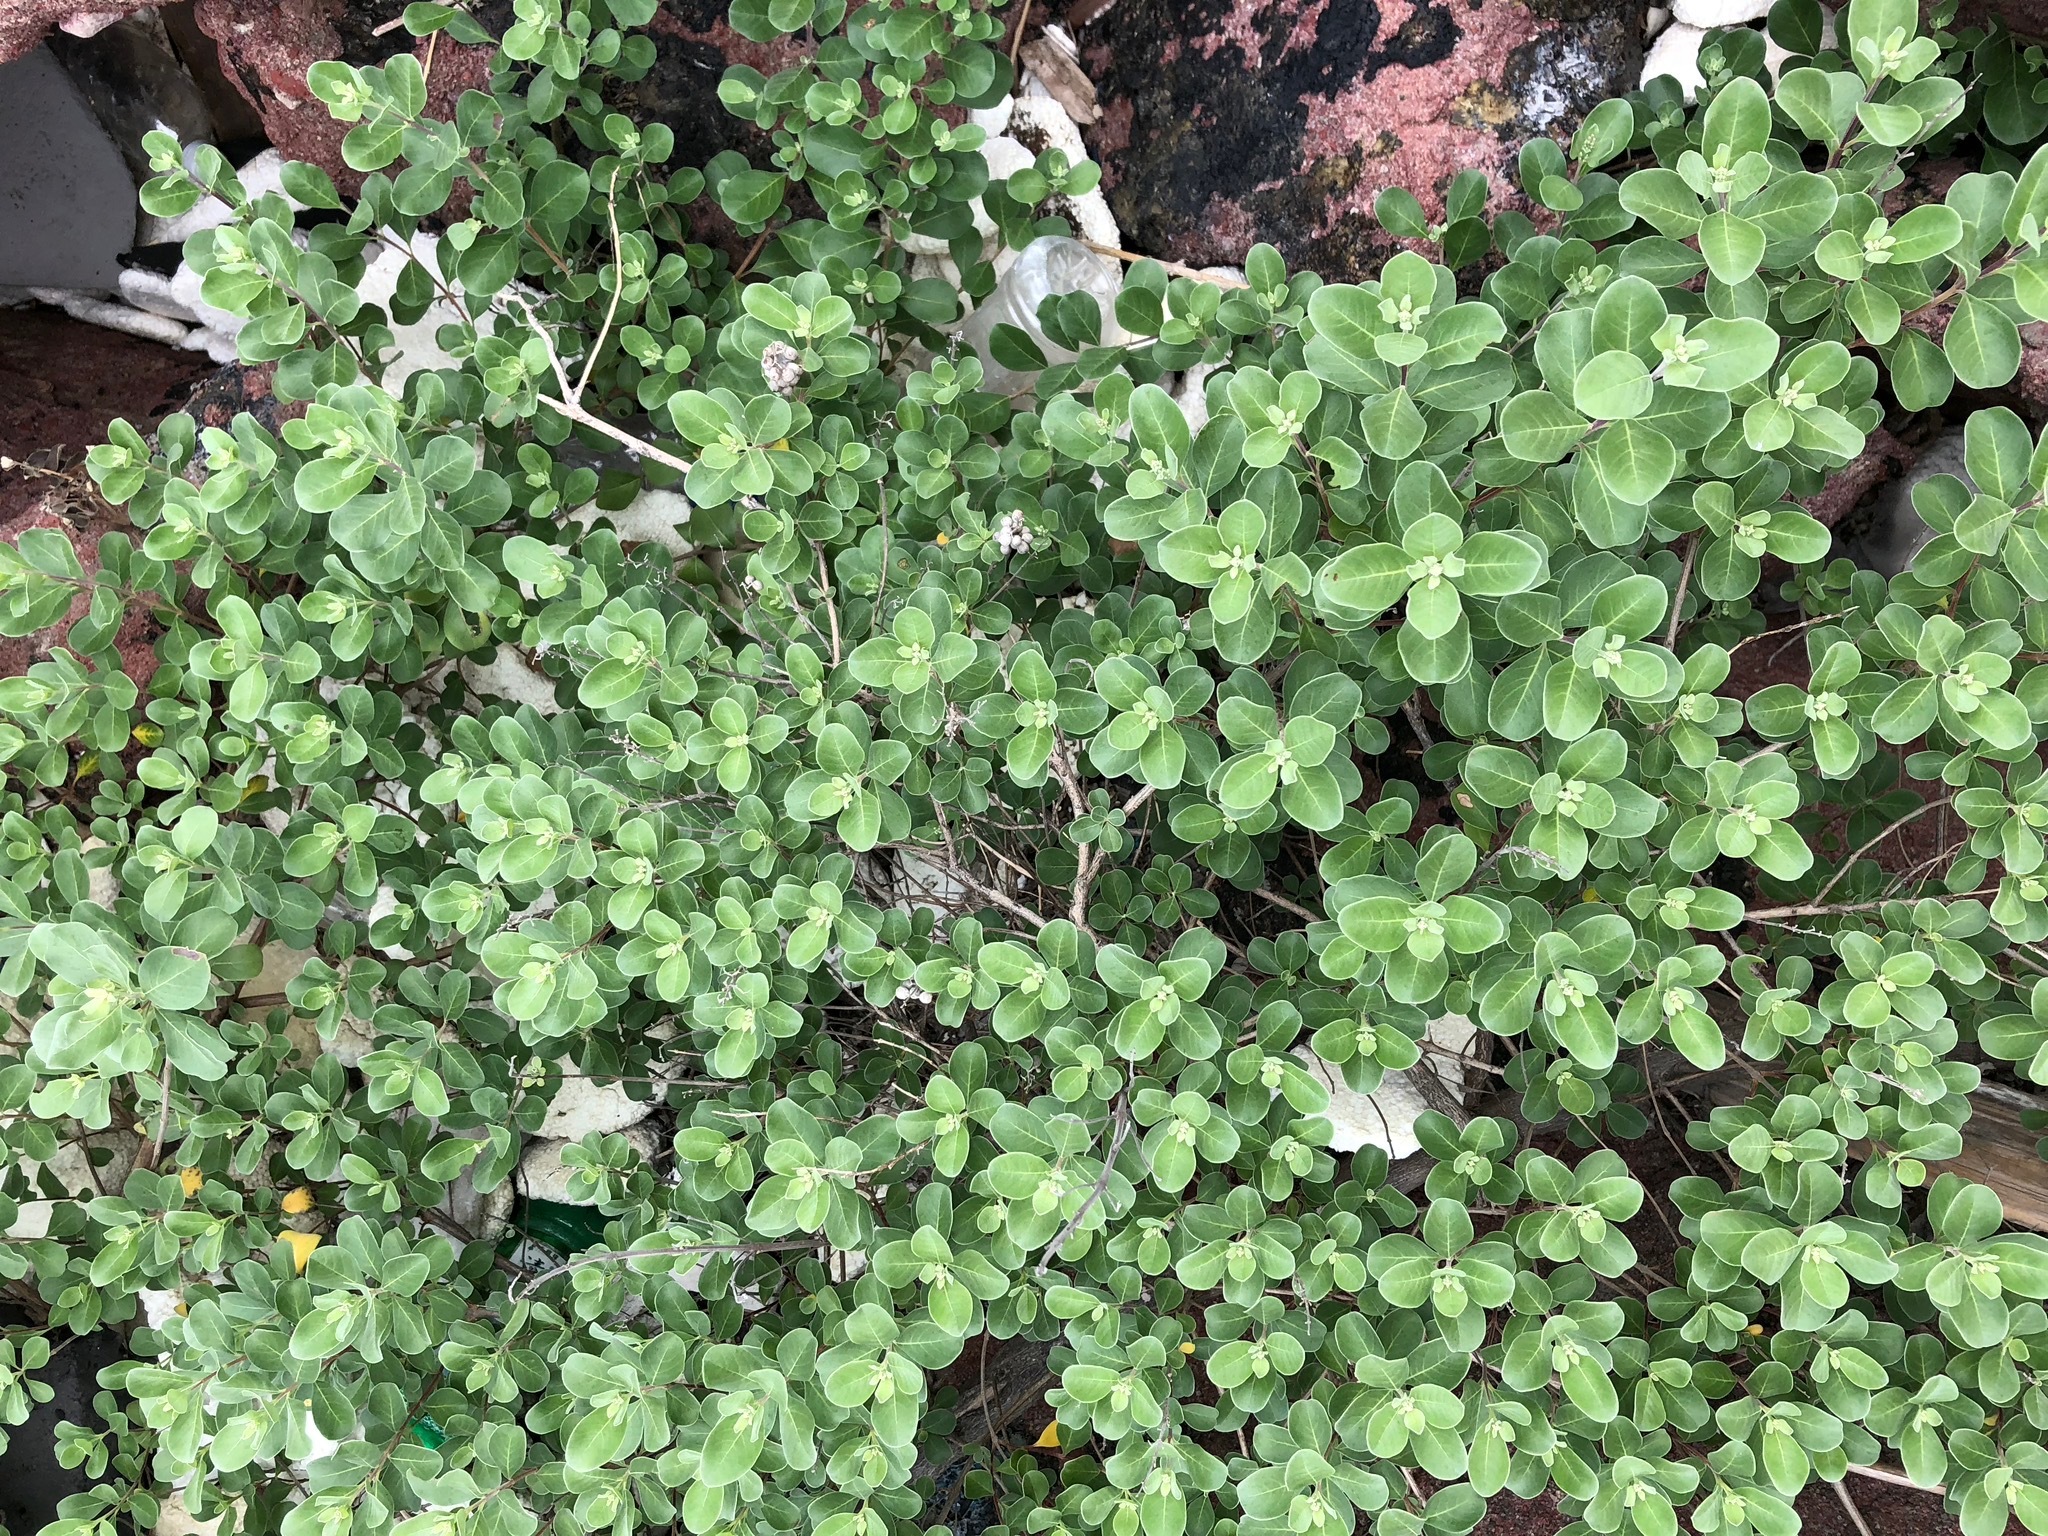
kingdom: Plantae
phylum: Tracheophyta
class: Magnoliopsida
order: Lamiales
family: Lamiaceae
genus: Vitex
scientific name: Vitex rotundifolia
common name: Beach vitex
